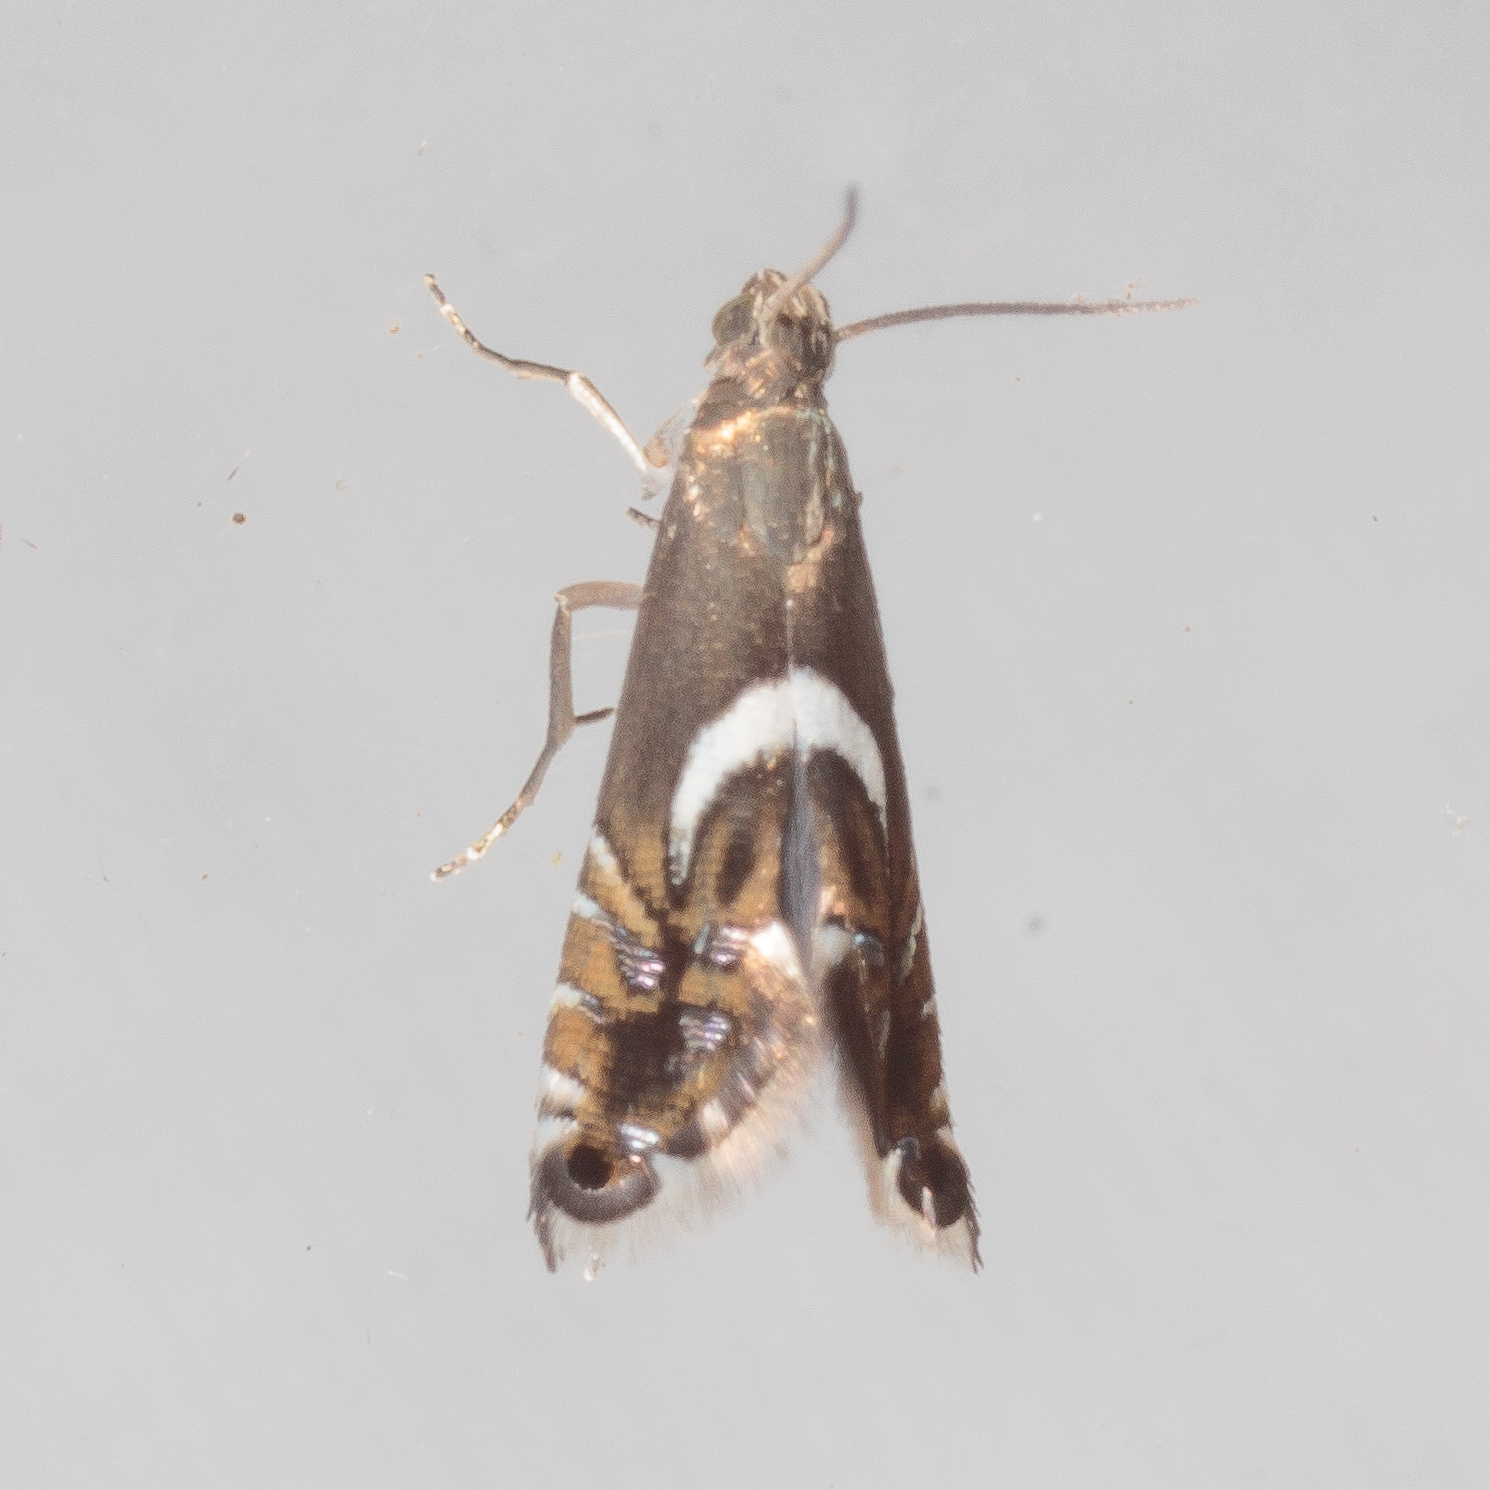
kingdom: Animalia
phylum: Arthropoda
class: Insecta
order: Lepidoptera
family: Glyphipterigidae
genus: Glyphipterix
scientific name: Glyphipterix Diploschizia impigritella
